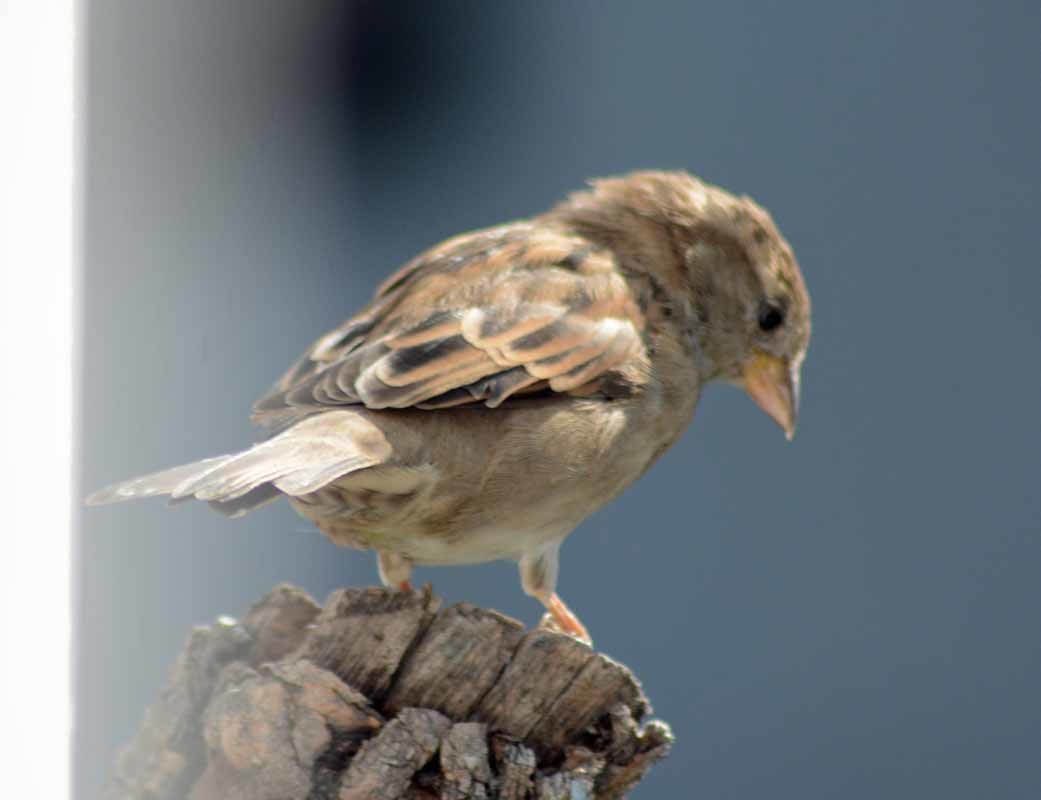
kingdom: Animalia
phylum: Chordata
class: Aves
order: Passeriformes
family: Passeridae
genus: Passer
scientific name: Passer domesticus
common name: House sparrow
